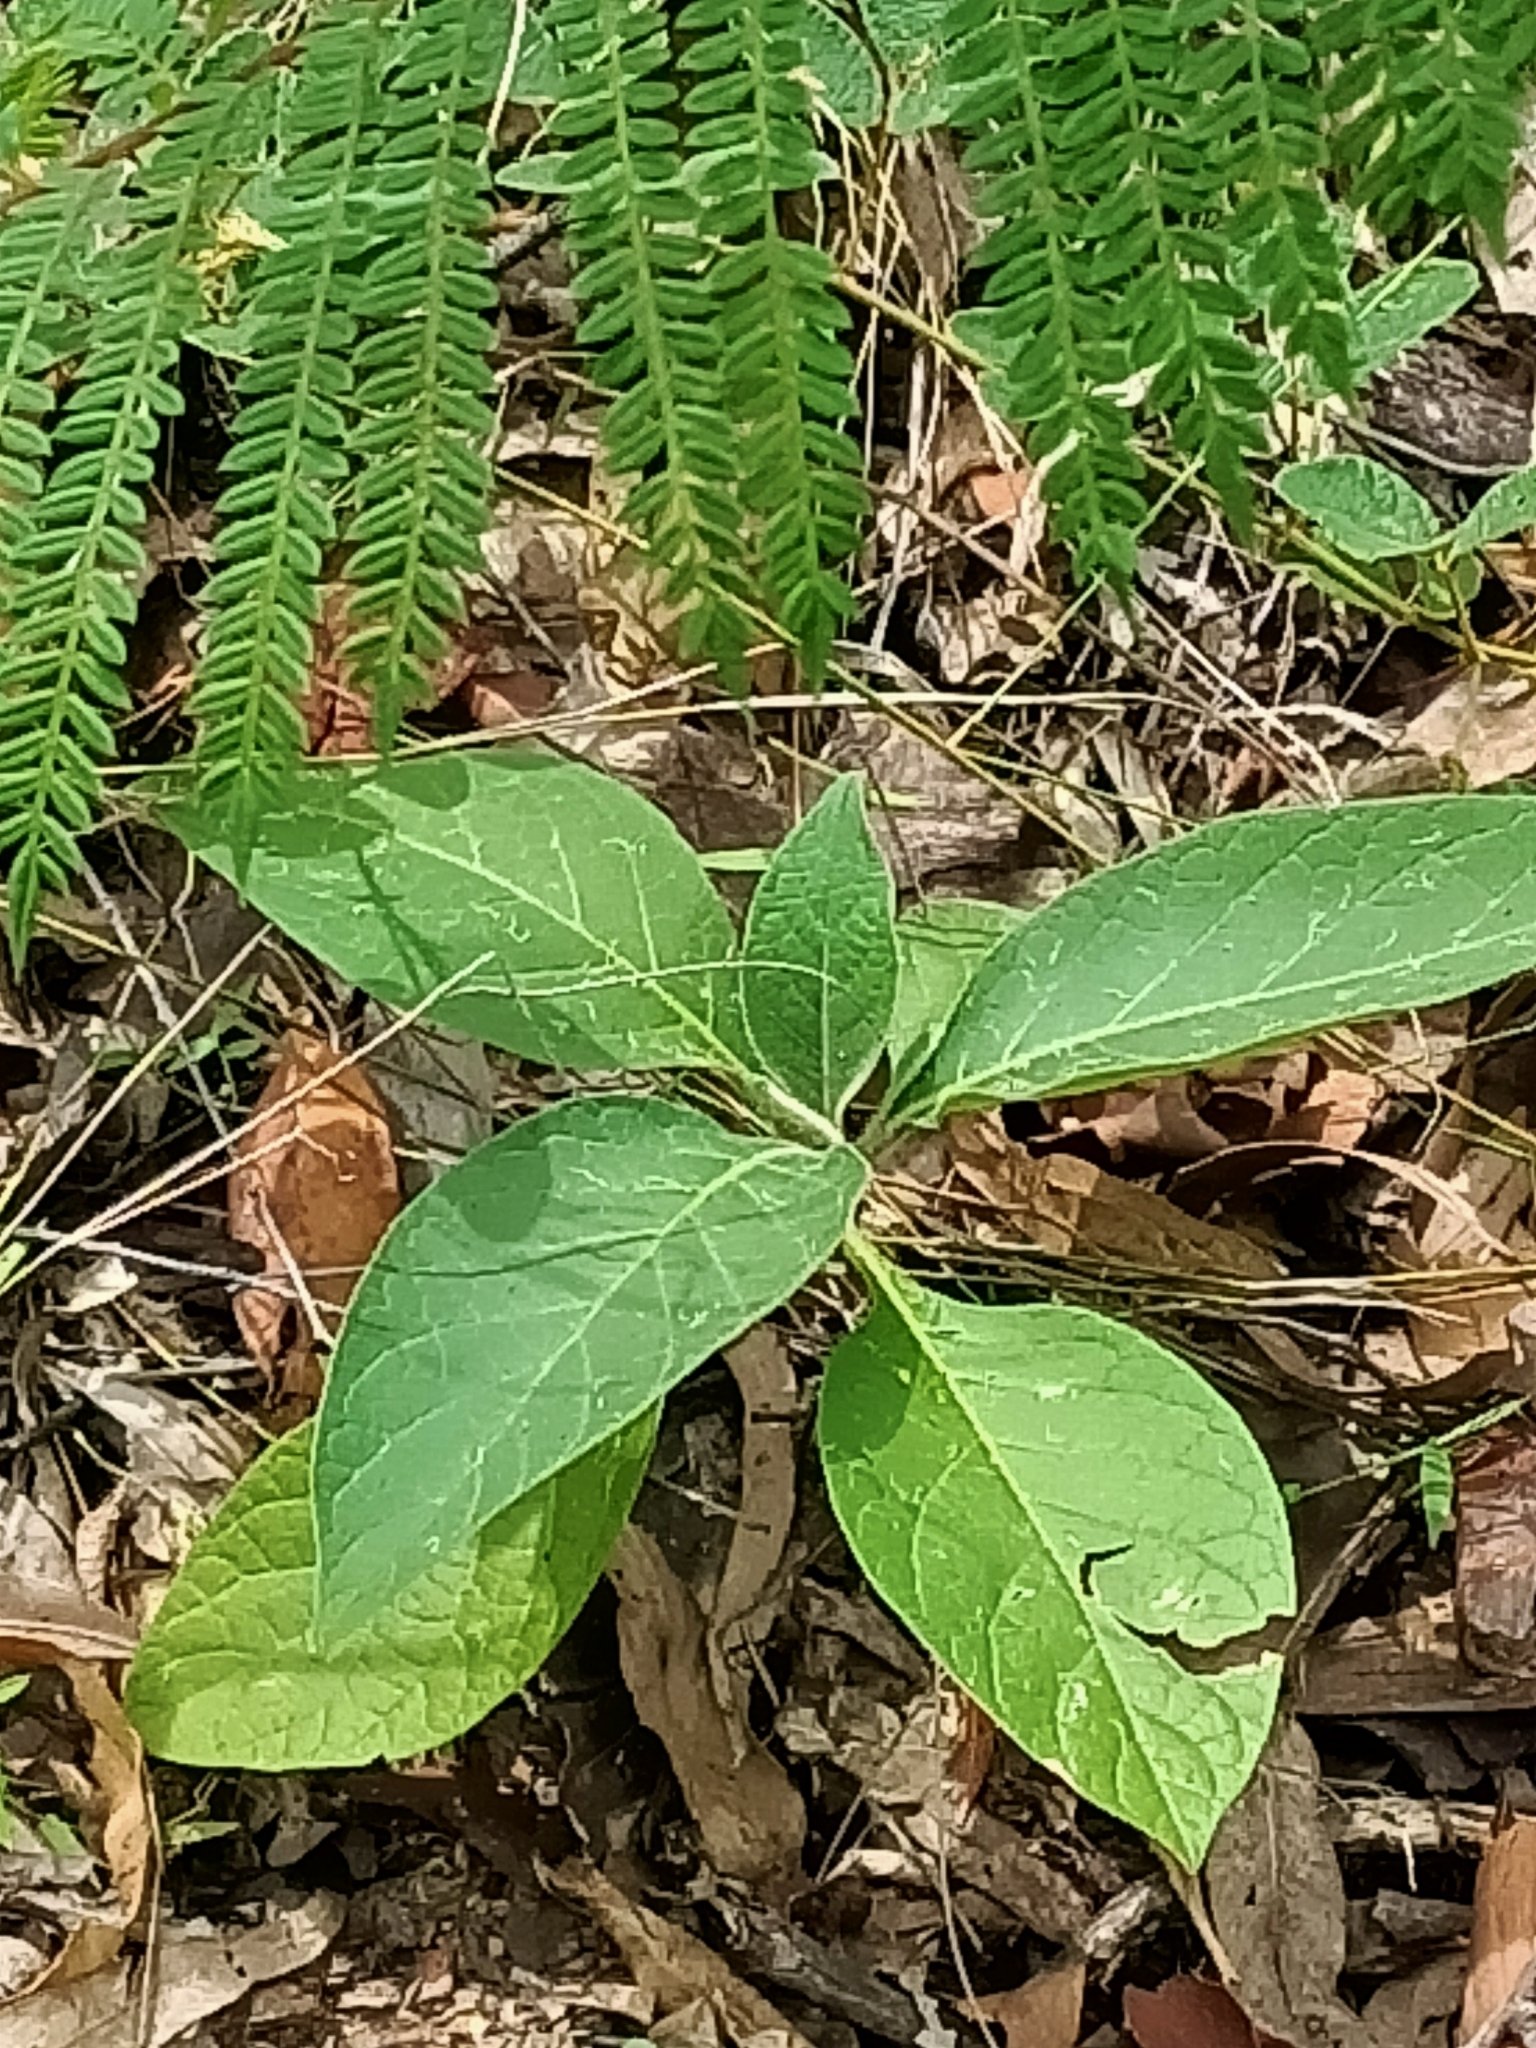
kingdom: Plantae
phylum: Tracheophyta
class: Magnoliopsida
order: Solanales
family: Solanaceae
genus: Solanum
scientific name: Solanum mauritianum
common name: Earleaf nightshade
